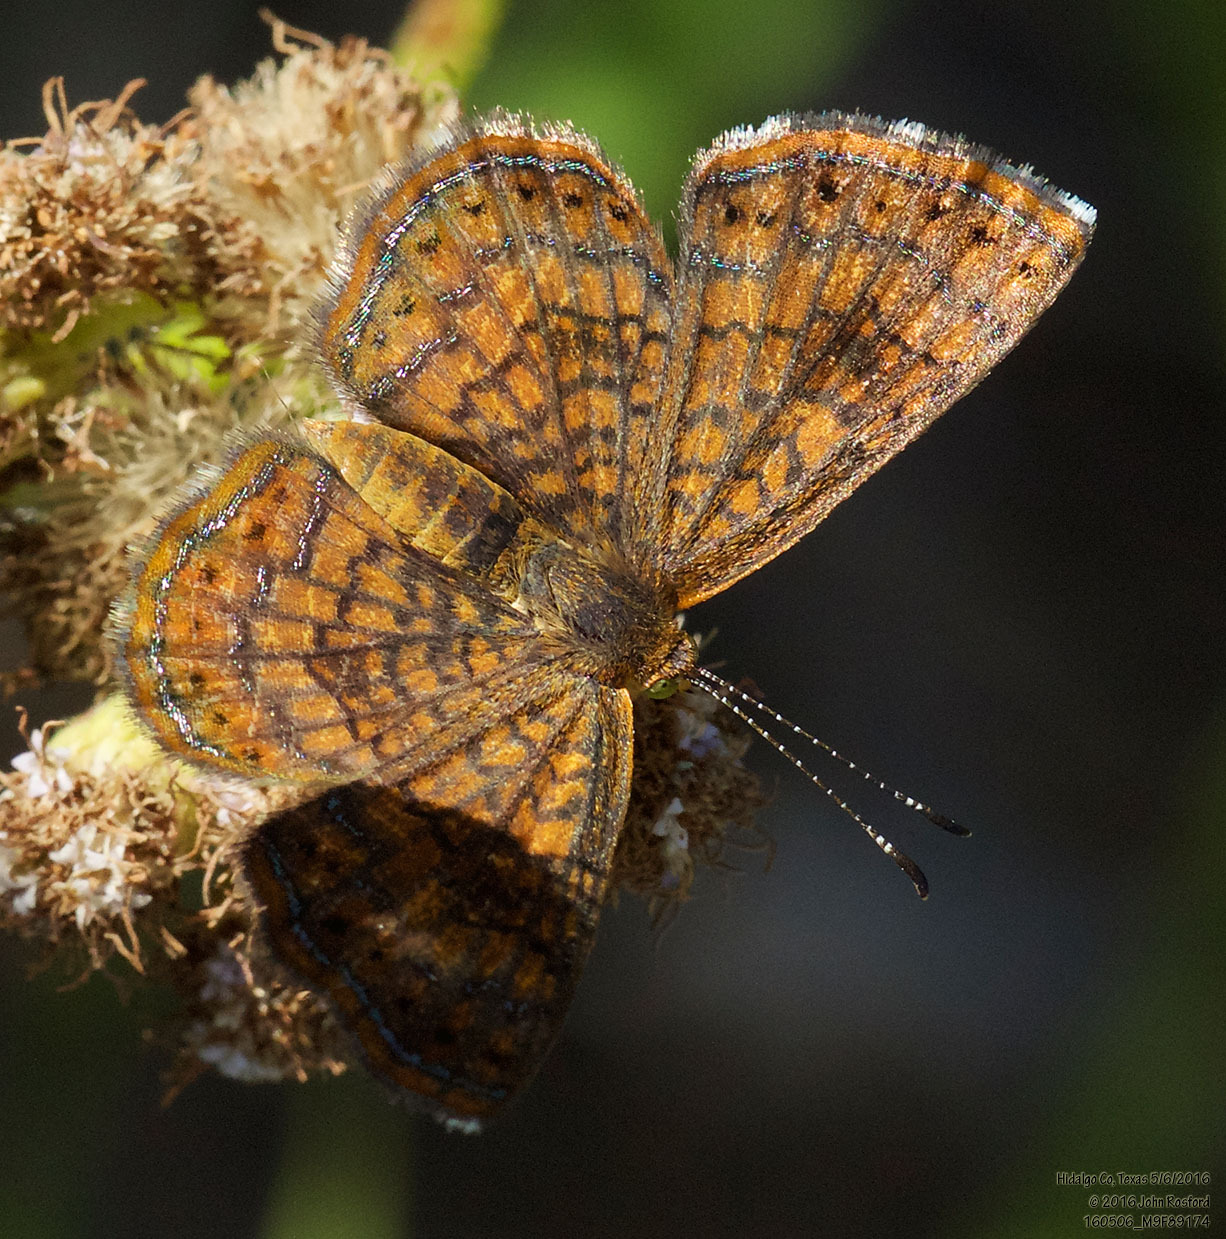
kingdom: Animalia
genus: Calephelis
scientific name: Calephelis nemesis
